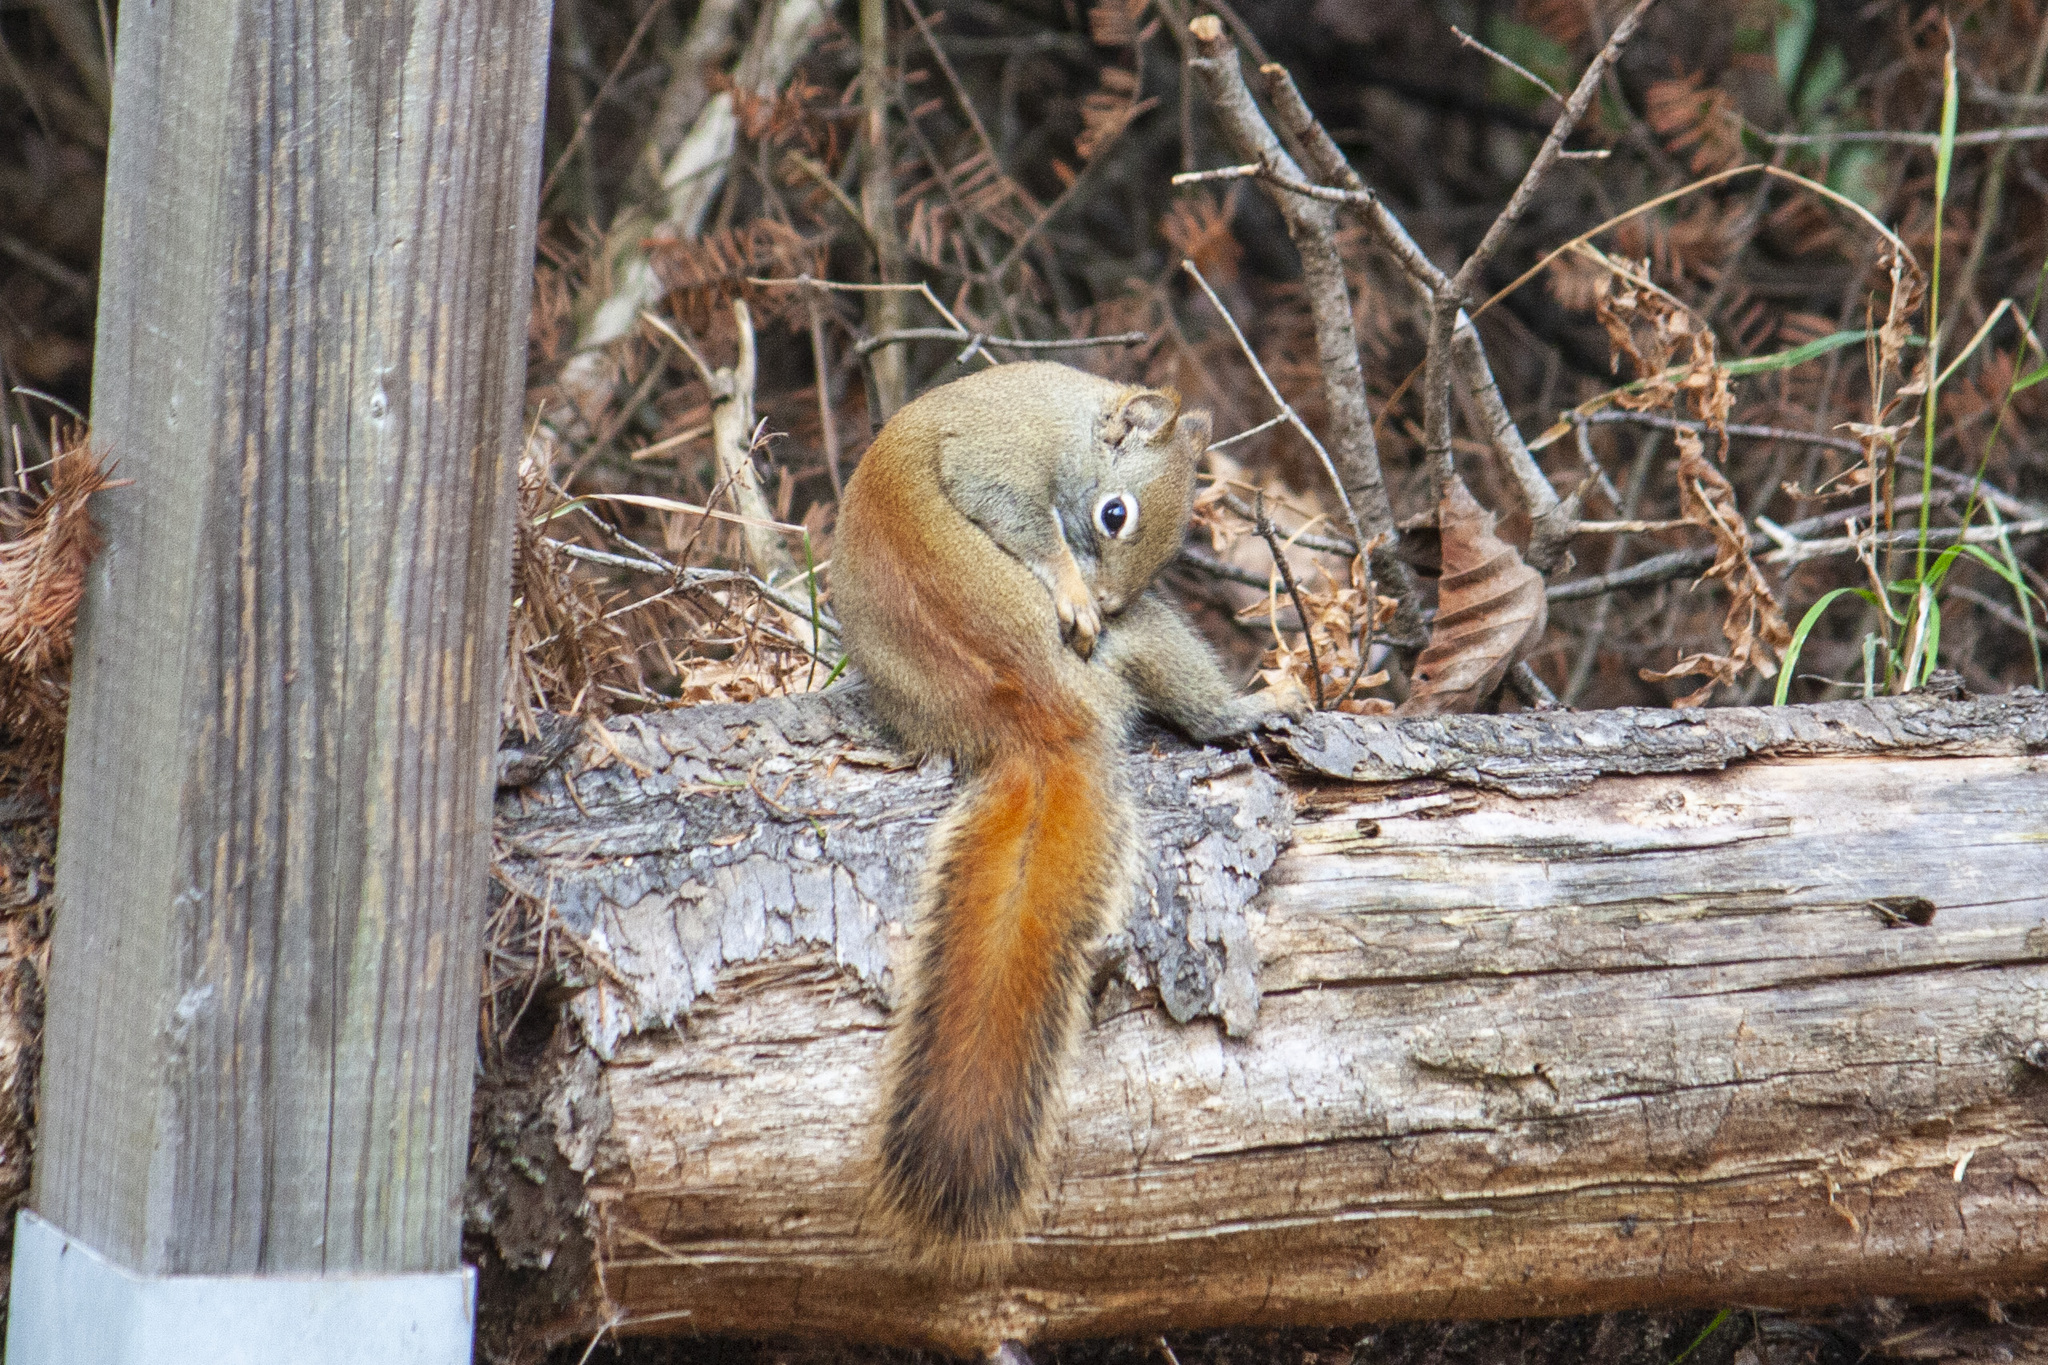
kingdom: Animalia
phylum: Chordata
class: Mammalia
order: Rodentia
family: Sciuridae
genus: Tamiasciurus
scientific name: Tamiasciurus hudsonicus
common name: Red squirrel
